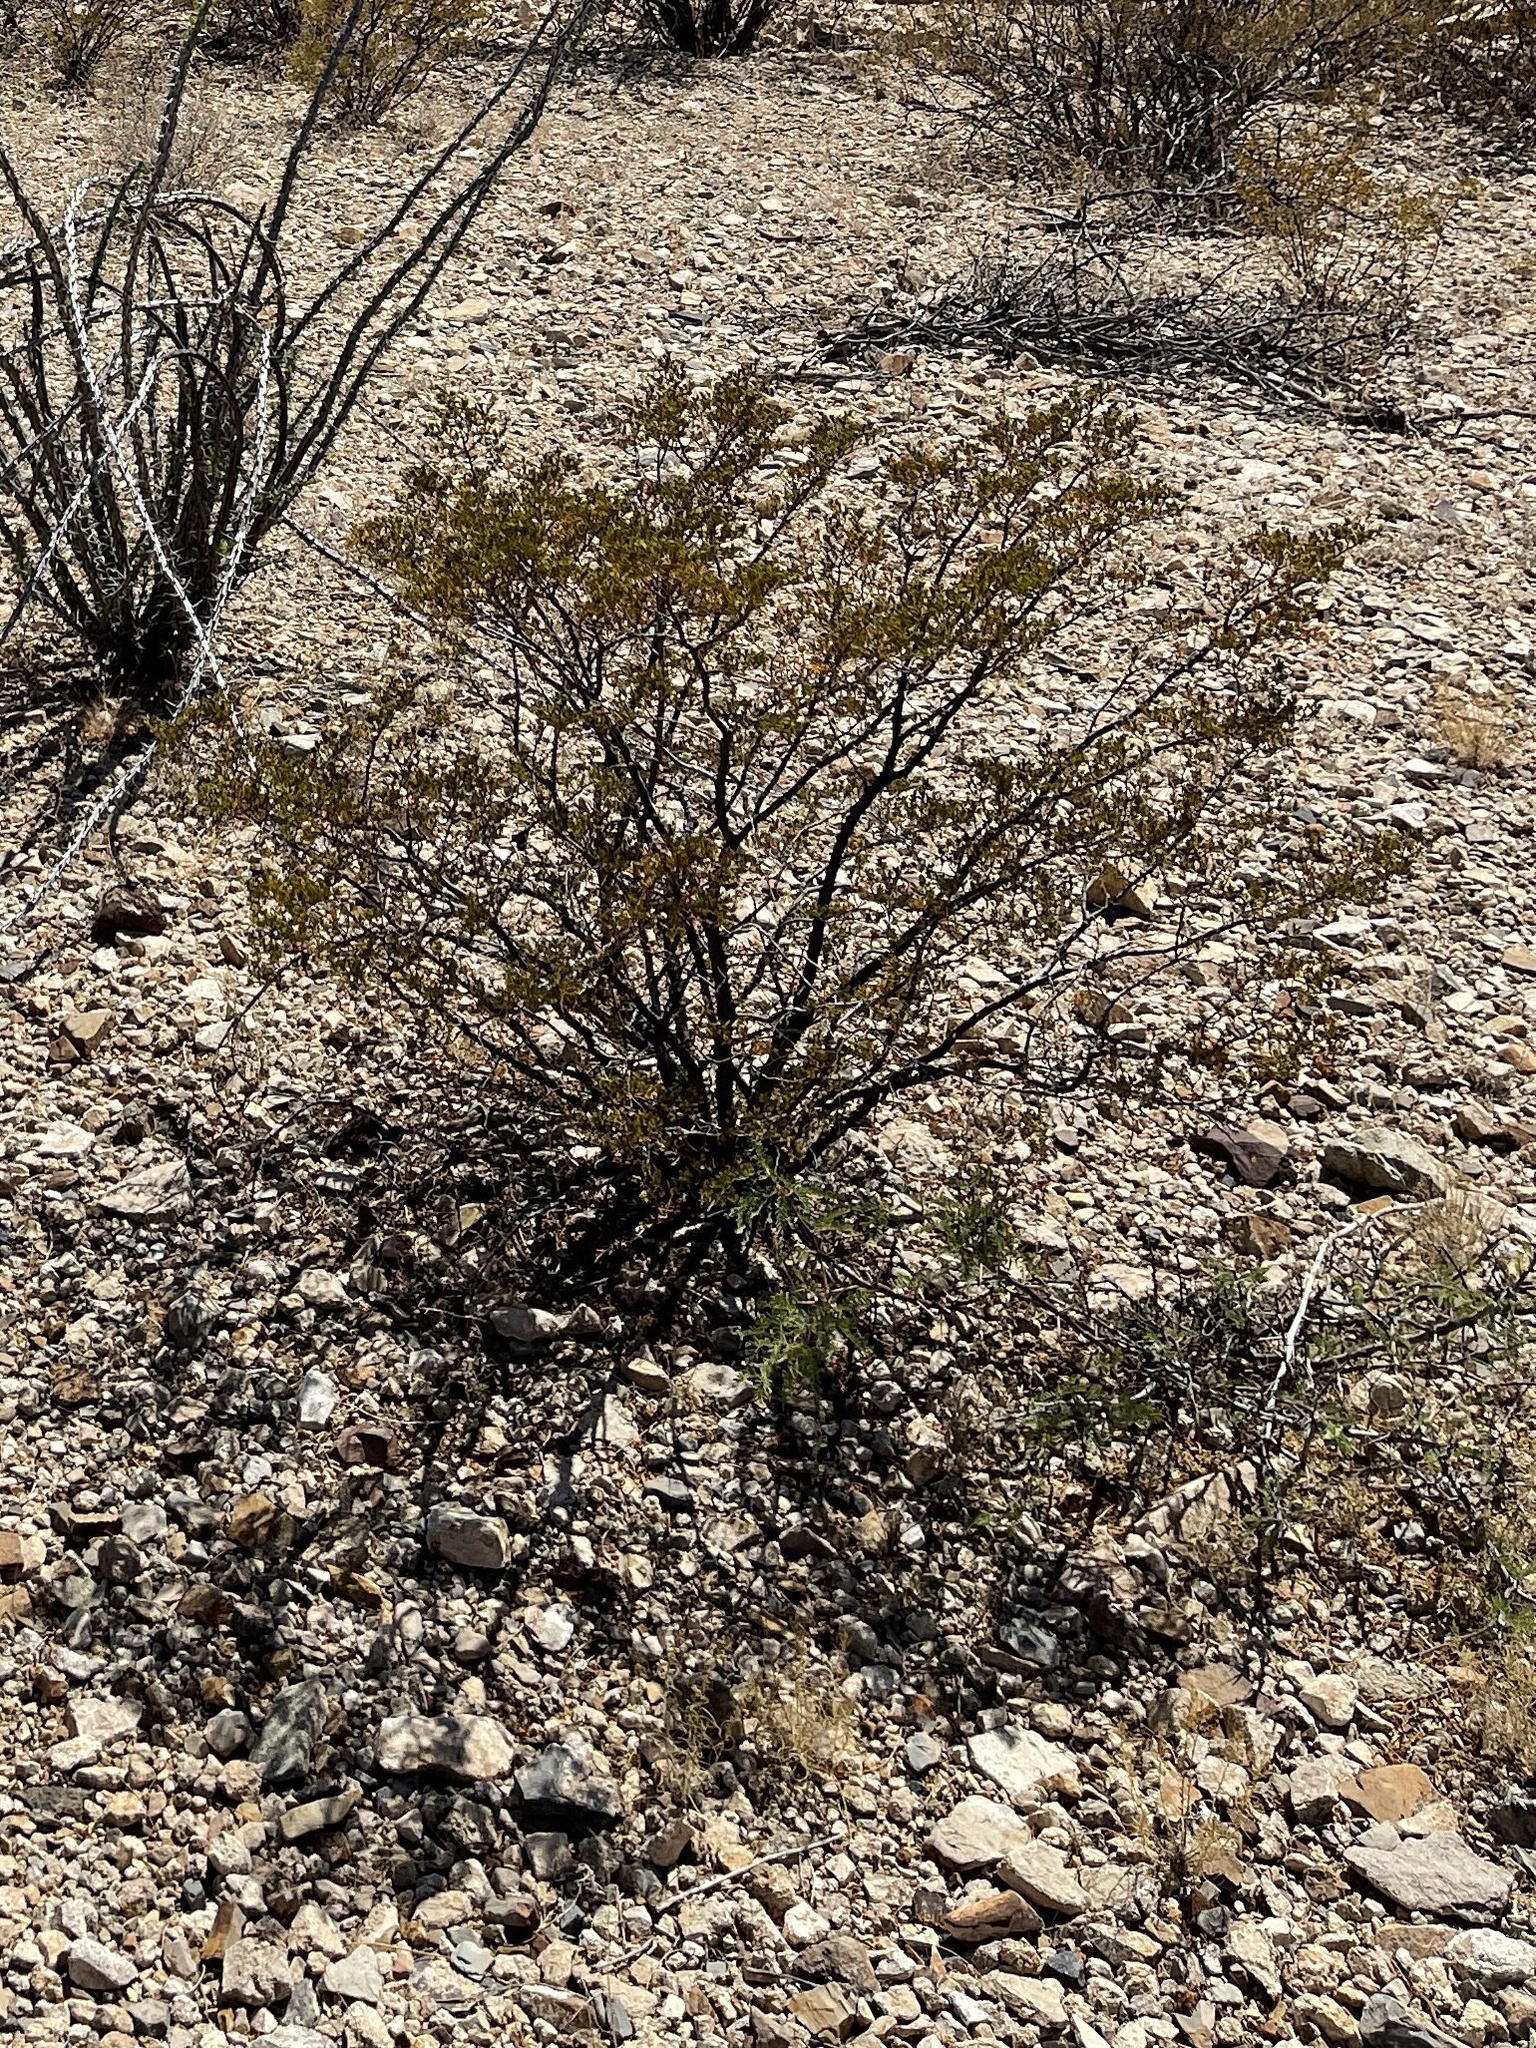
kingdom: Plantae
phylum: Tracheophyta
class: Magnoliopsida
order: Zygophyllales
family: Zygophyllaceae
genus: Larrea
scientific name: Larrea tridentata
